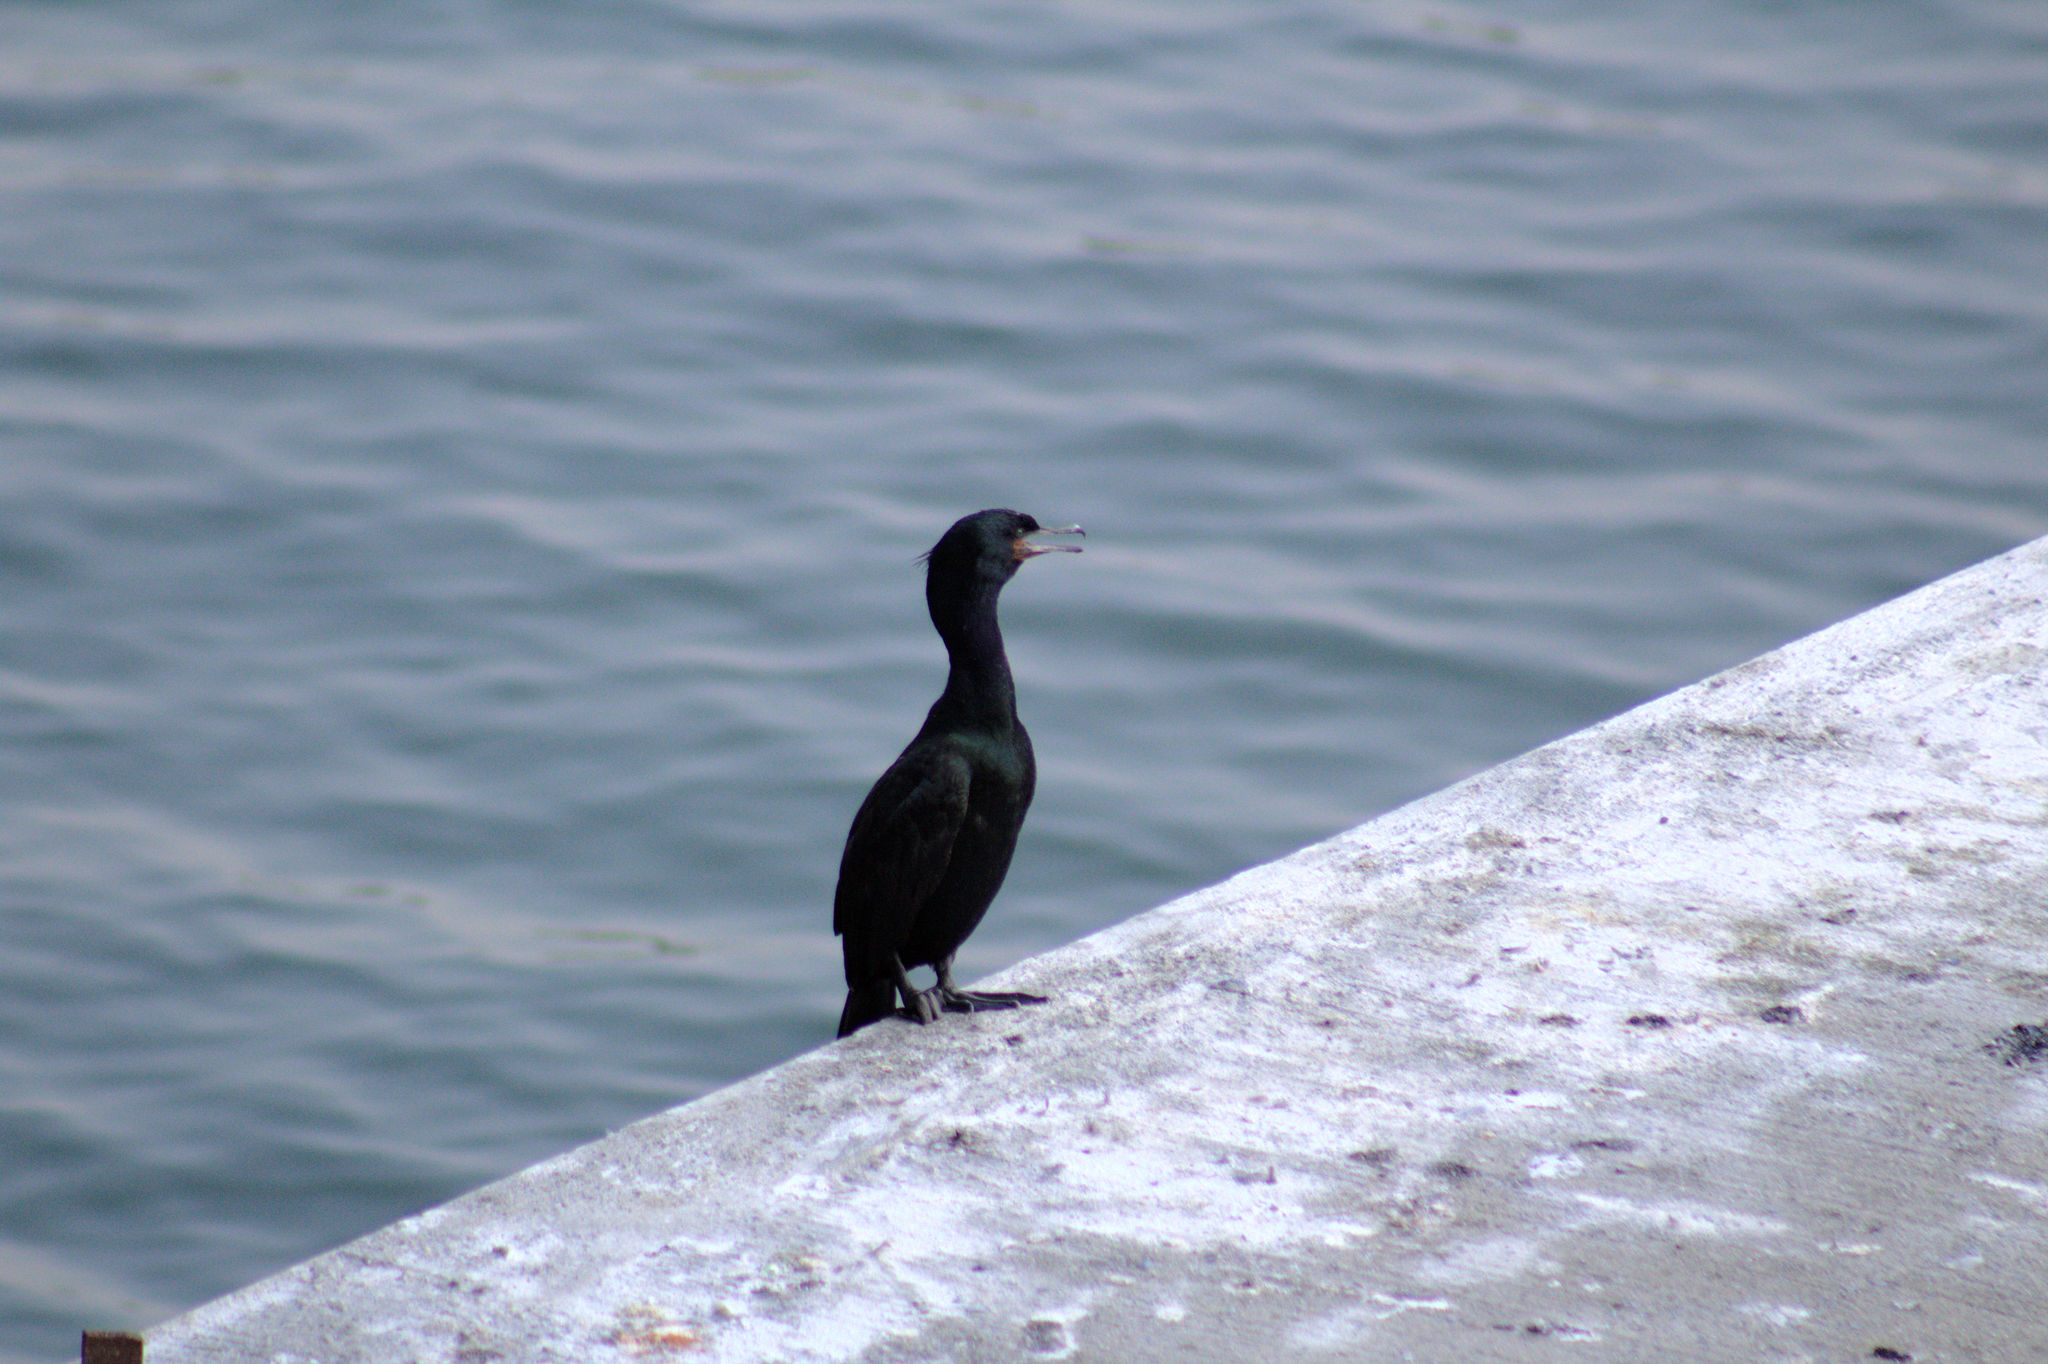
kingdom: Animalia
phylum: Chordata
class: Aves
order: Suliformes
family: Phalacrocoracidae
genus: Phalacrocorax
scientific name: Phalacrocorax pelagicus
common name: Pelagic cormorant
